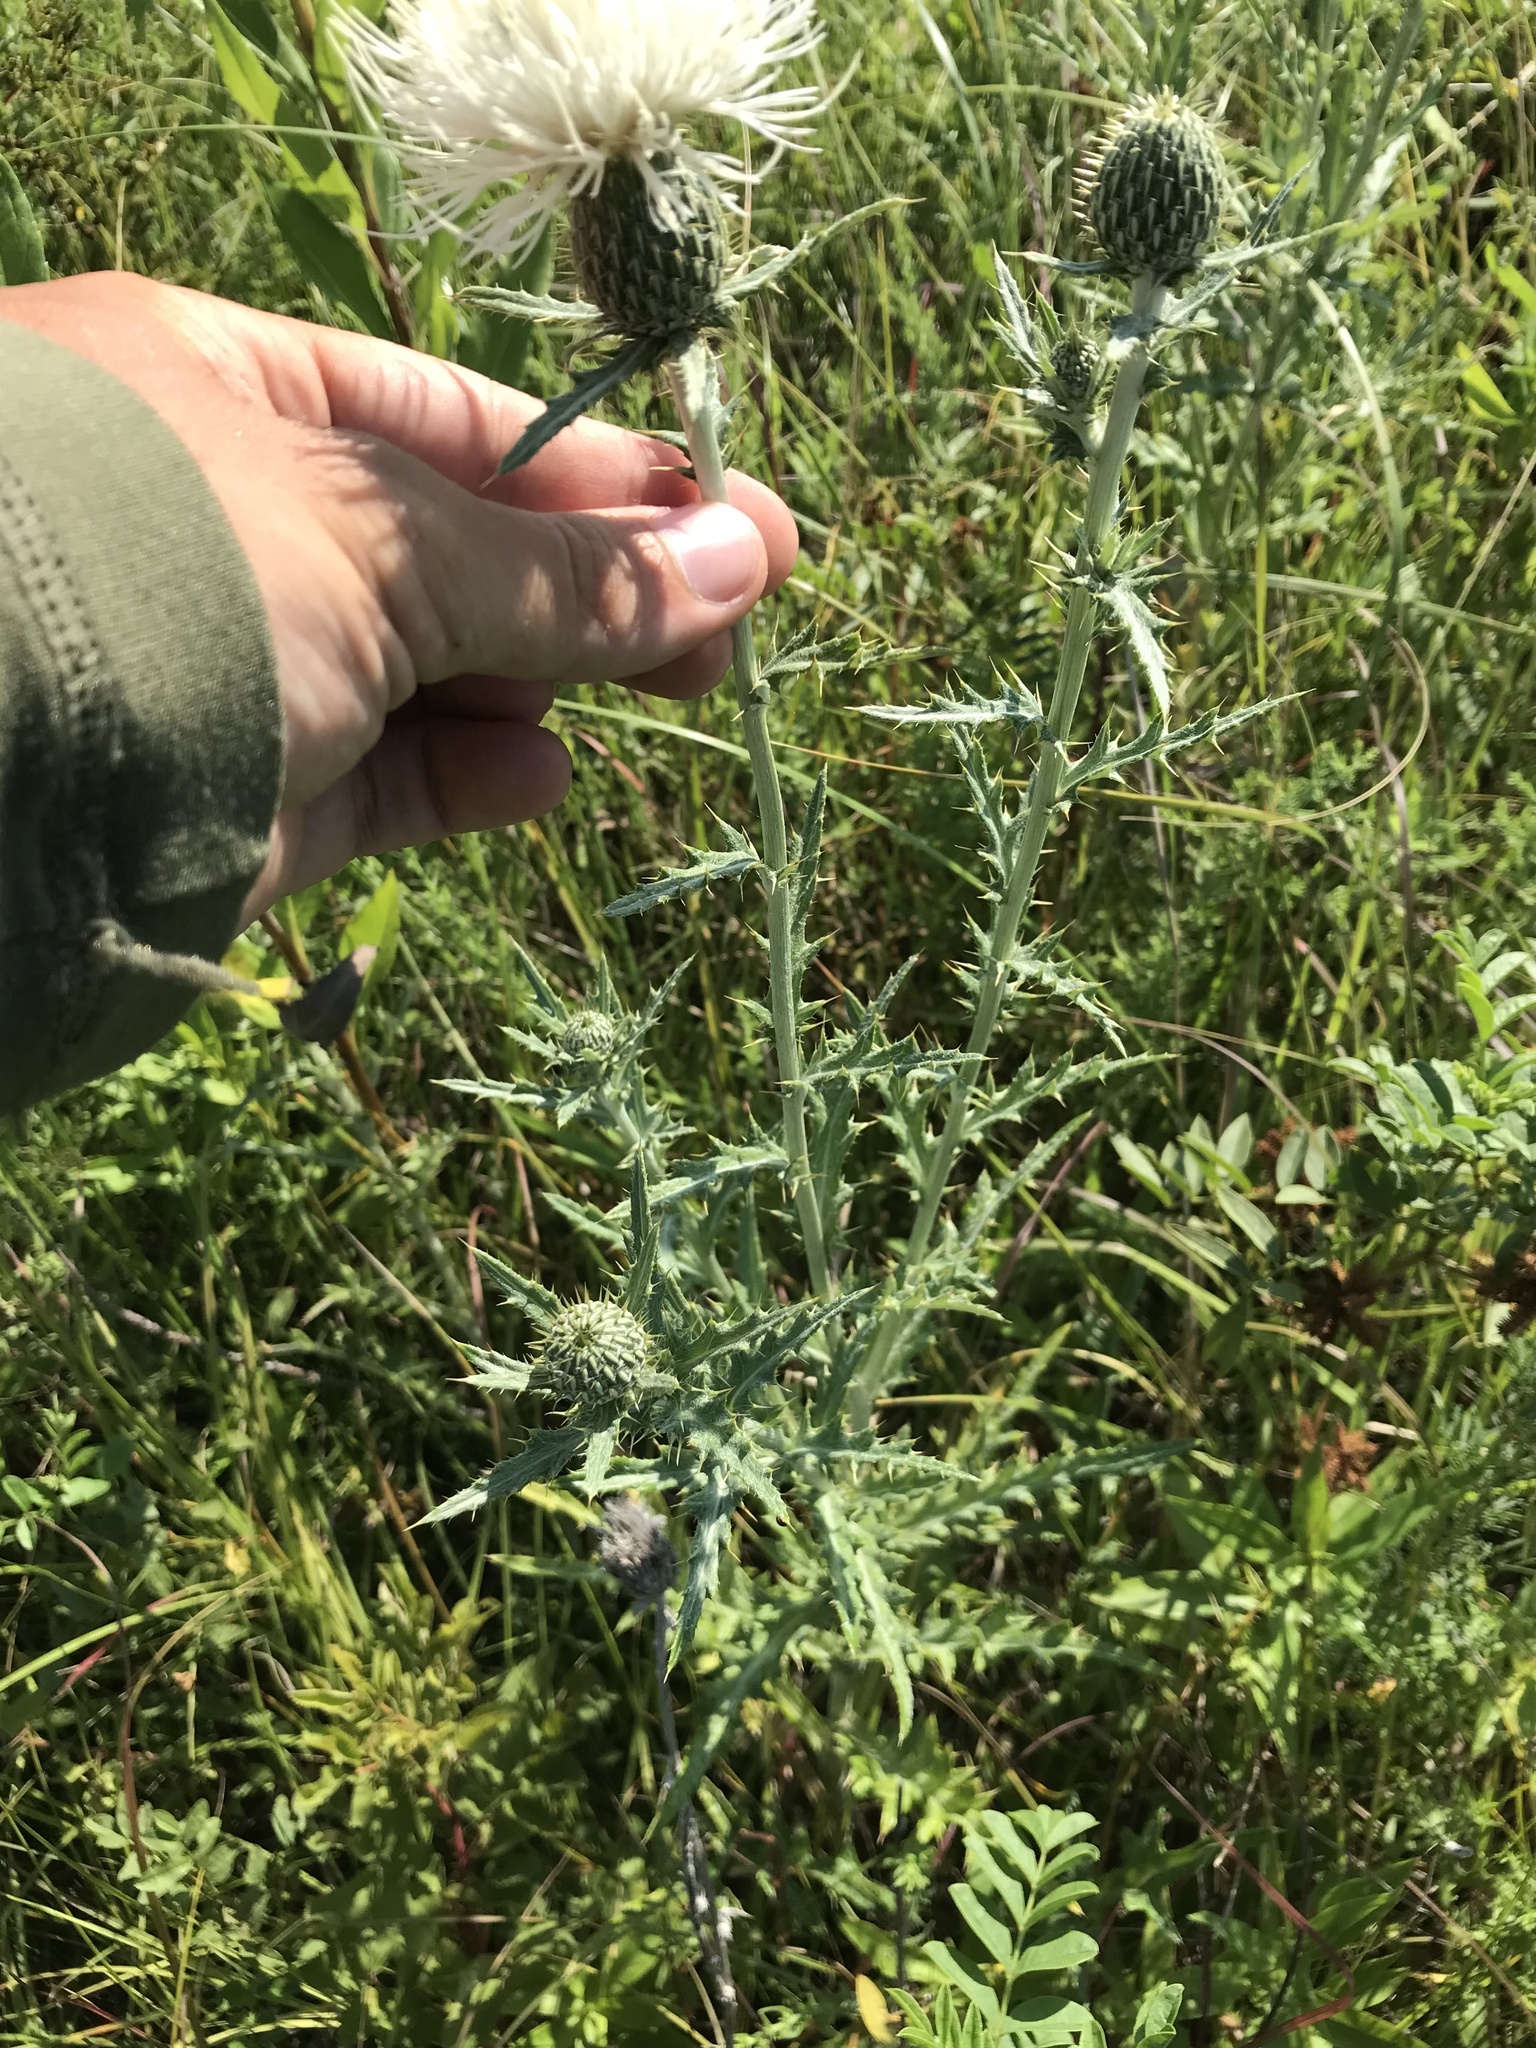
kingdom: Plantae
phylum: Tracheophyta
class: Magnoliopsida
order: Asterales
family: Asteraceae
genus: Cirsium
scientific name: Cirsium flodmanii
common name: Flodman's thistle
